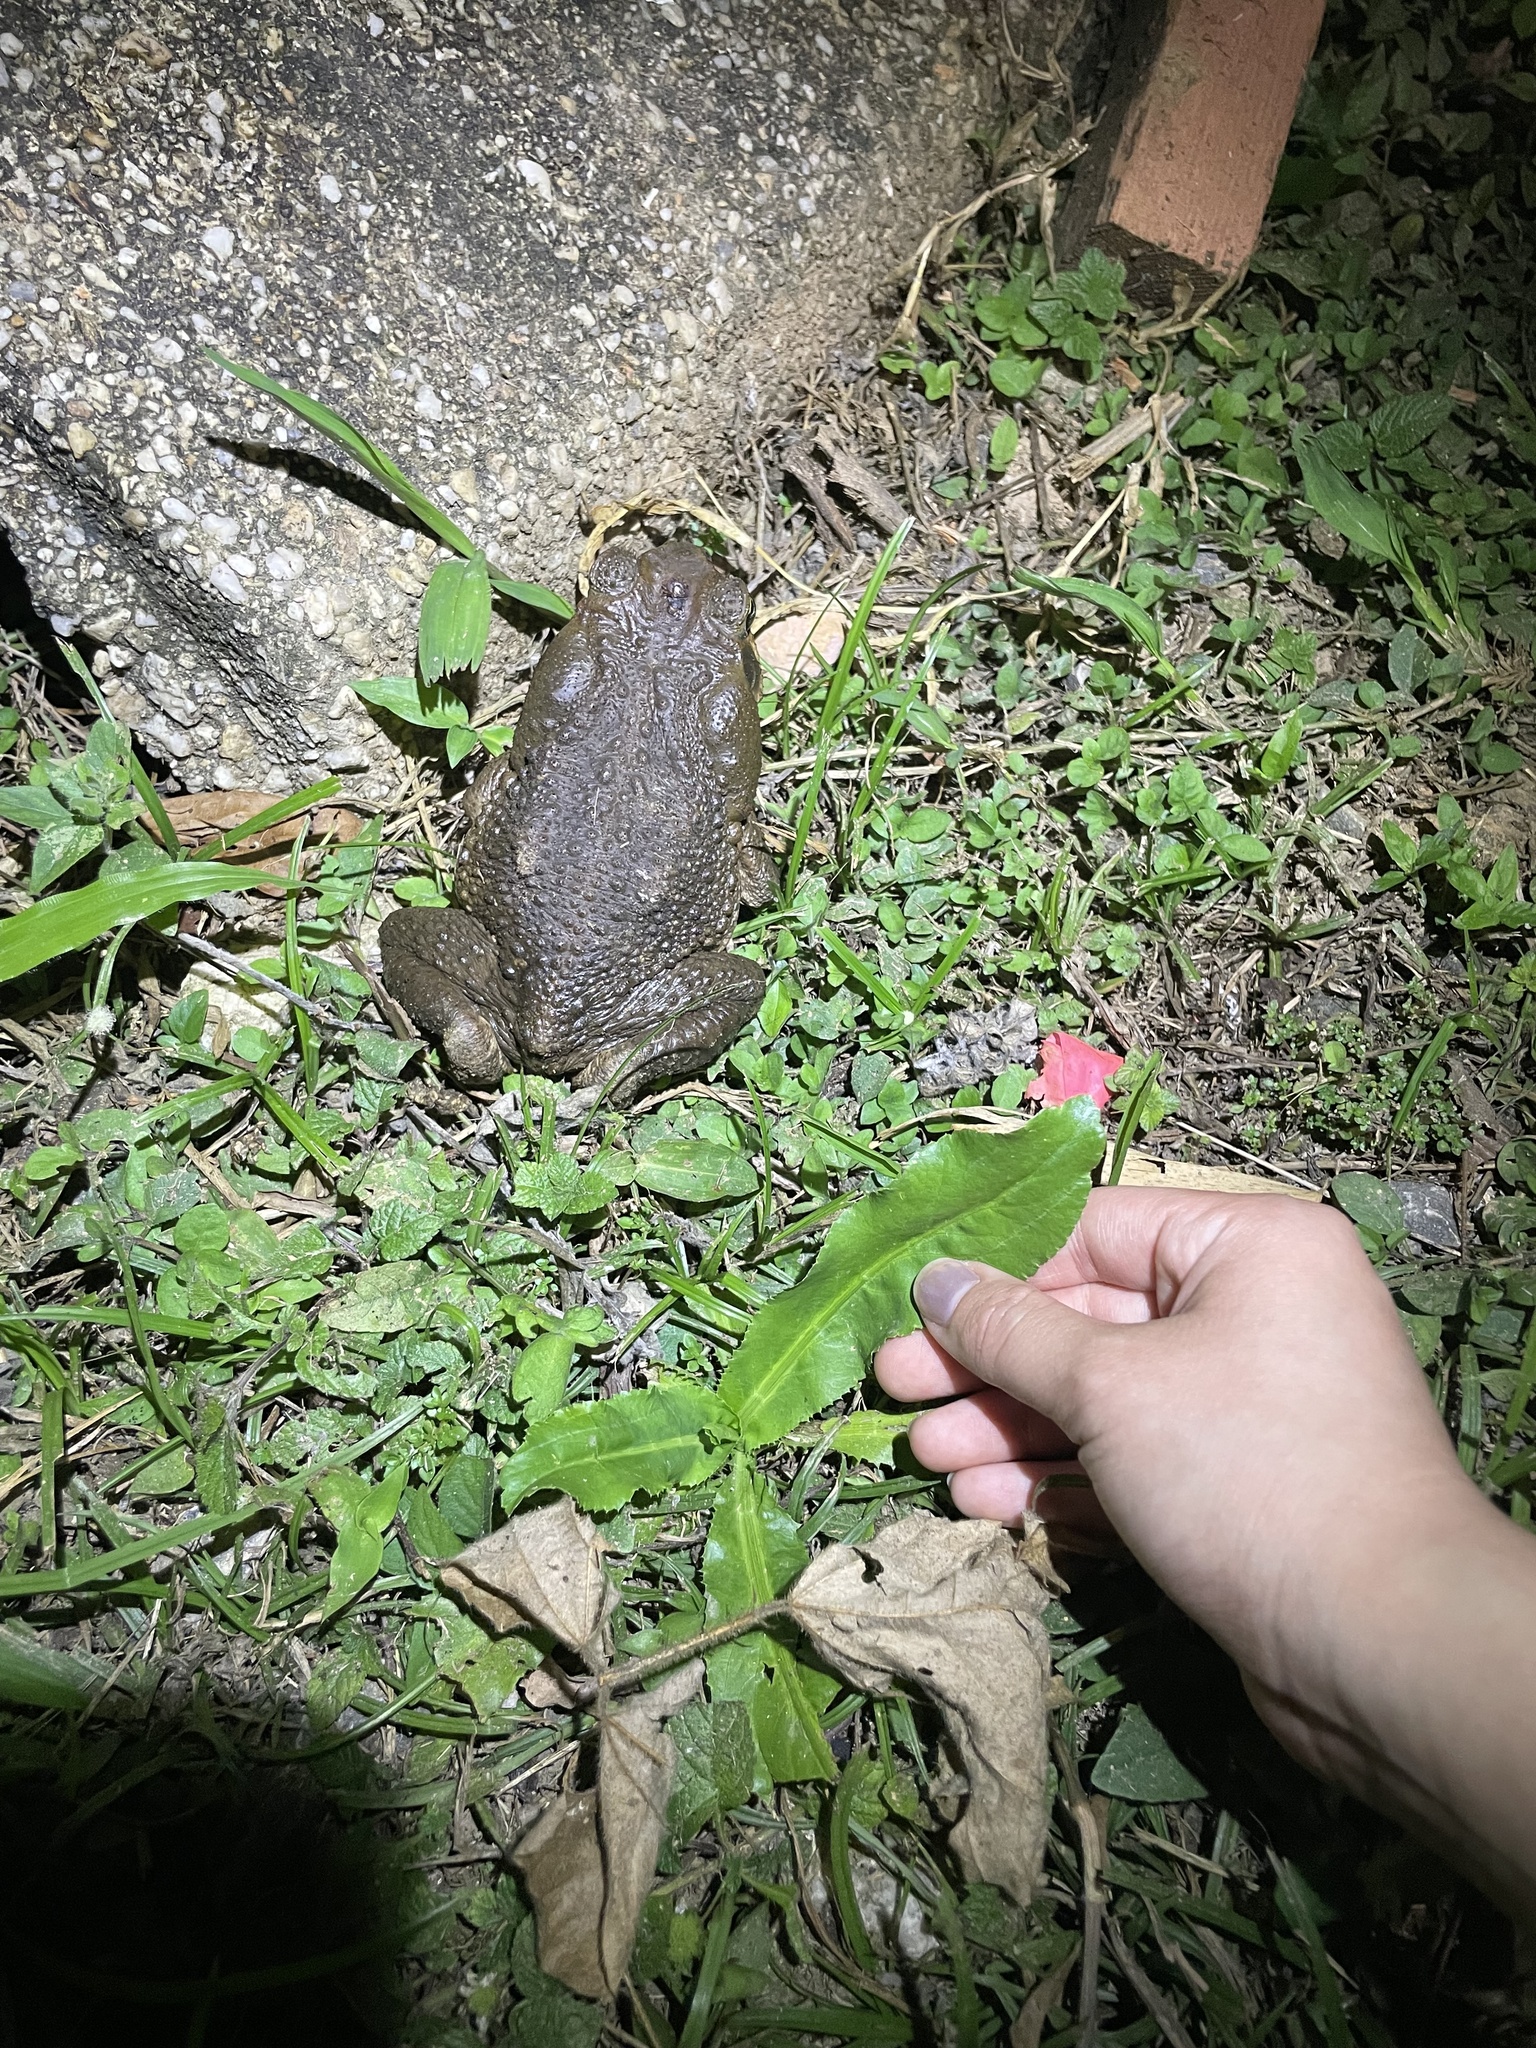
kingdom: Animalia
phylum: Chordata
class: Amphibia
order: Anura
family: Bufonidae
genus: Rhinella
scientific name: Rhinella marina
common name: Cane toad
